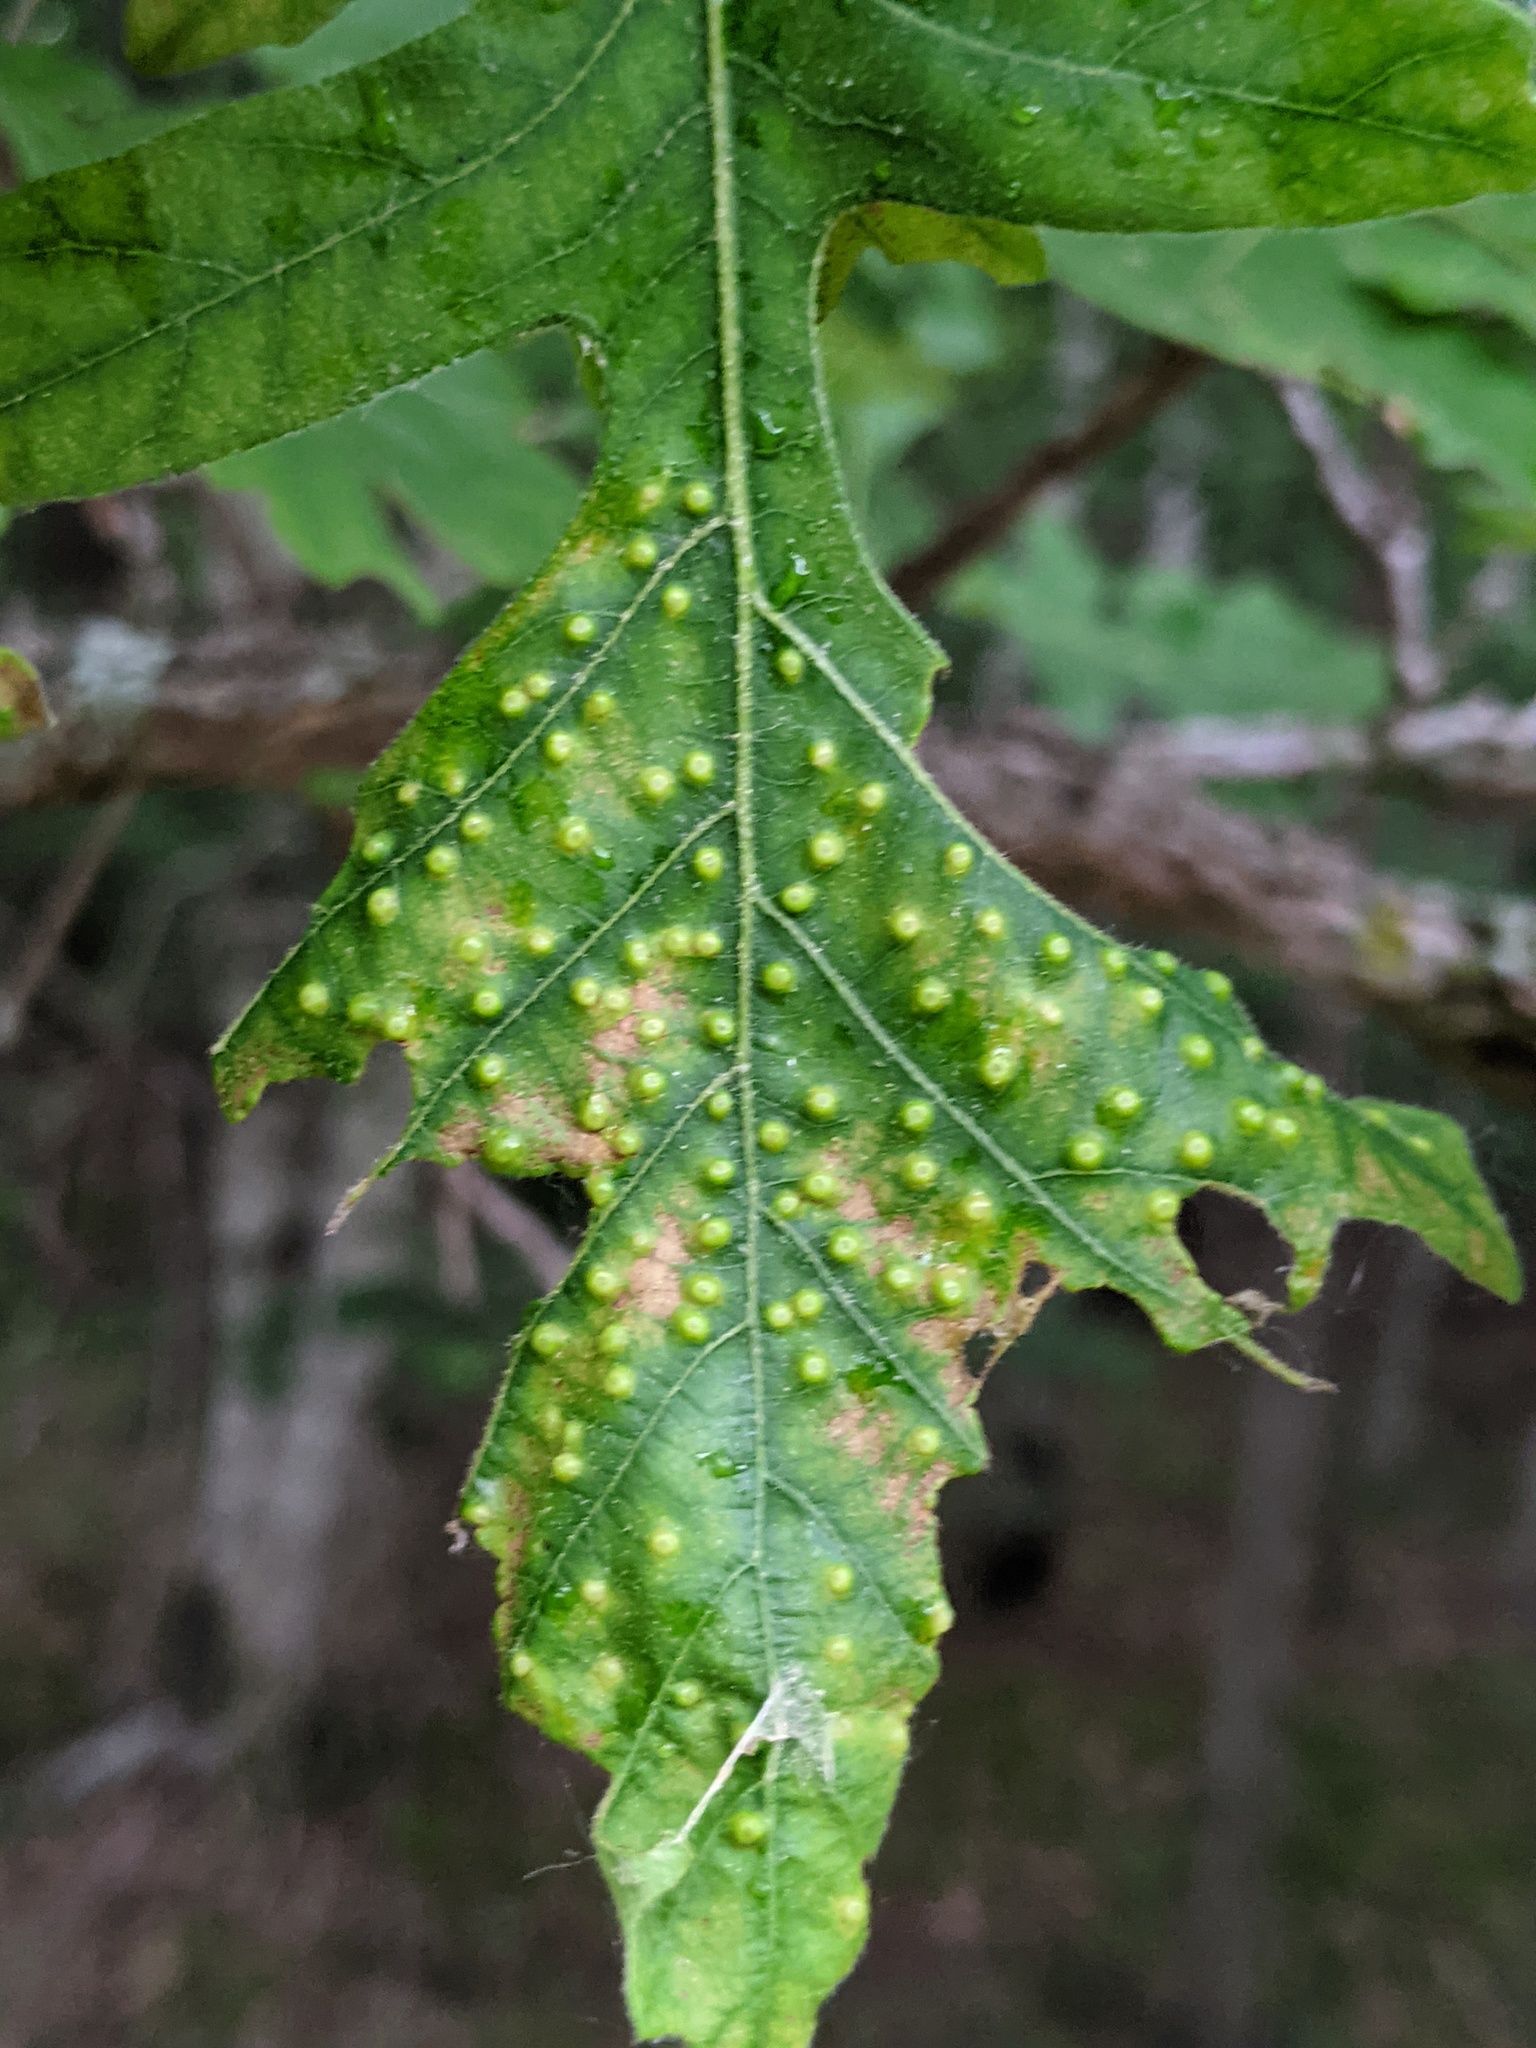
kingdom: Animalia
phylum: Arthropoda
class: Insecta
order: Hymenoptera
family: Cynipidae
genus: Neuroterus
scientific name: Neuroterus saltarius
